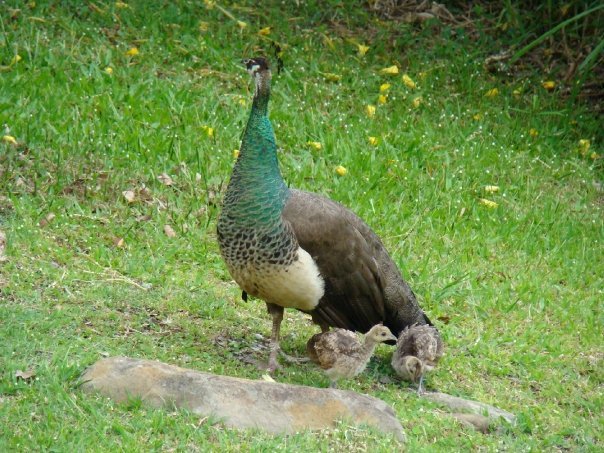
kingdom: Animalia
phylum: Chordata
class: Aves
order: Galliformes
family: Phasianidae
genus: Pavo
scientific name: Pavo cristatus
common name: Indian peafowl
